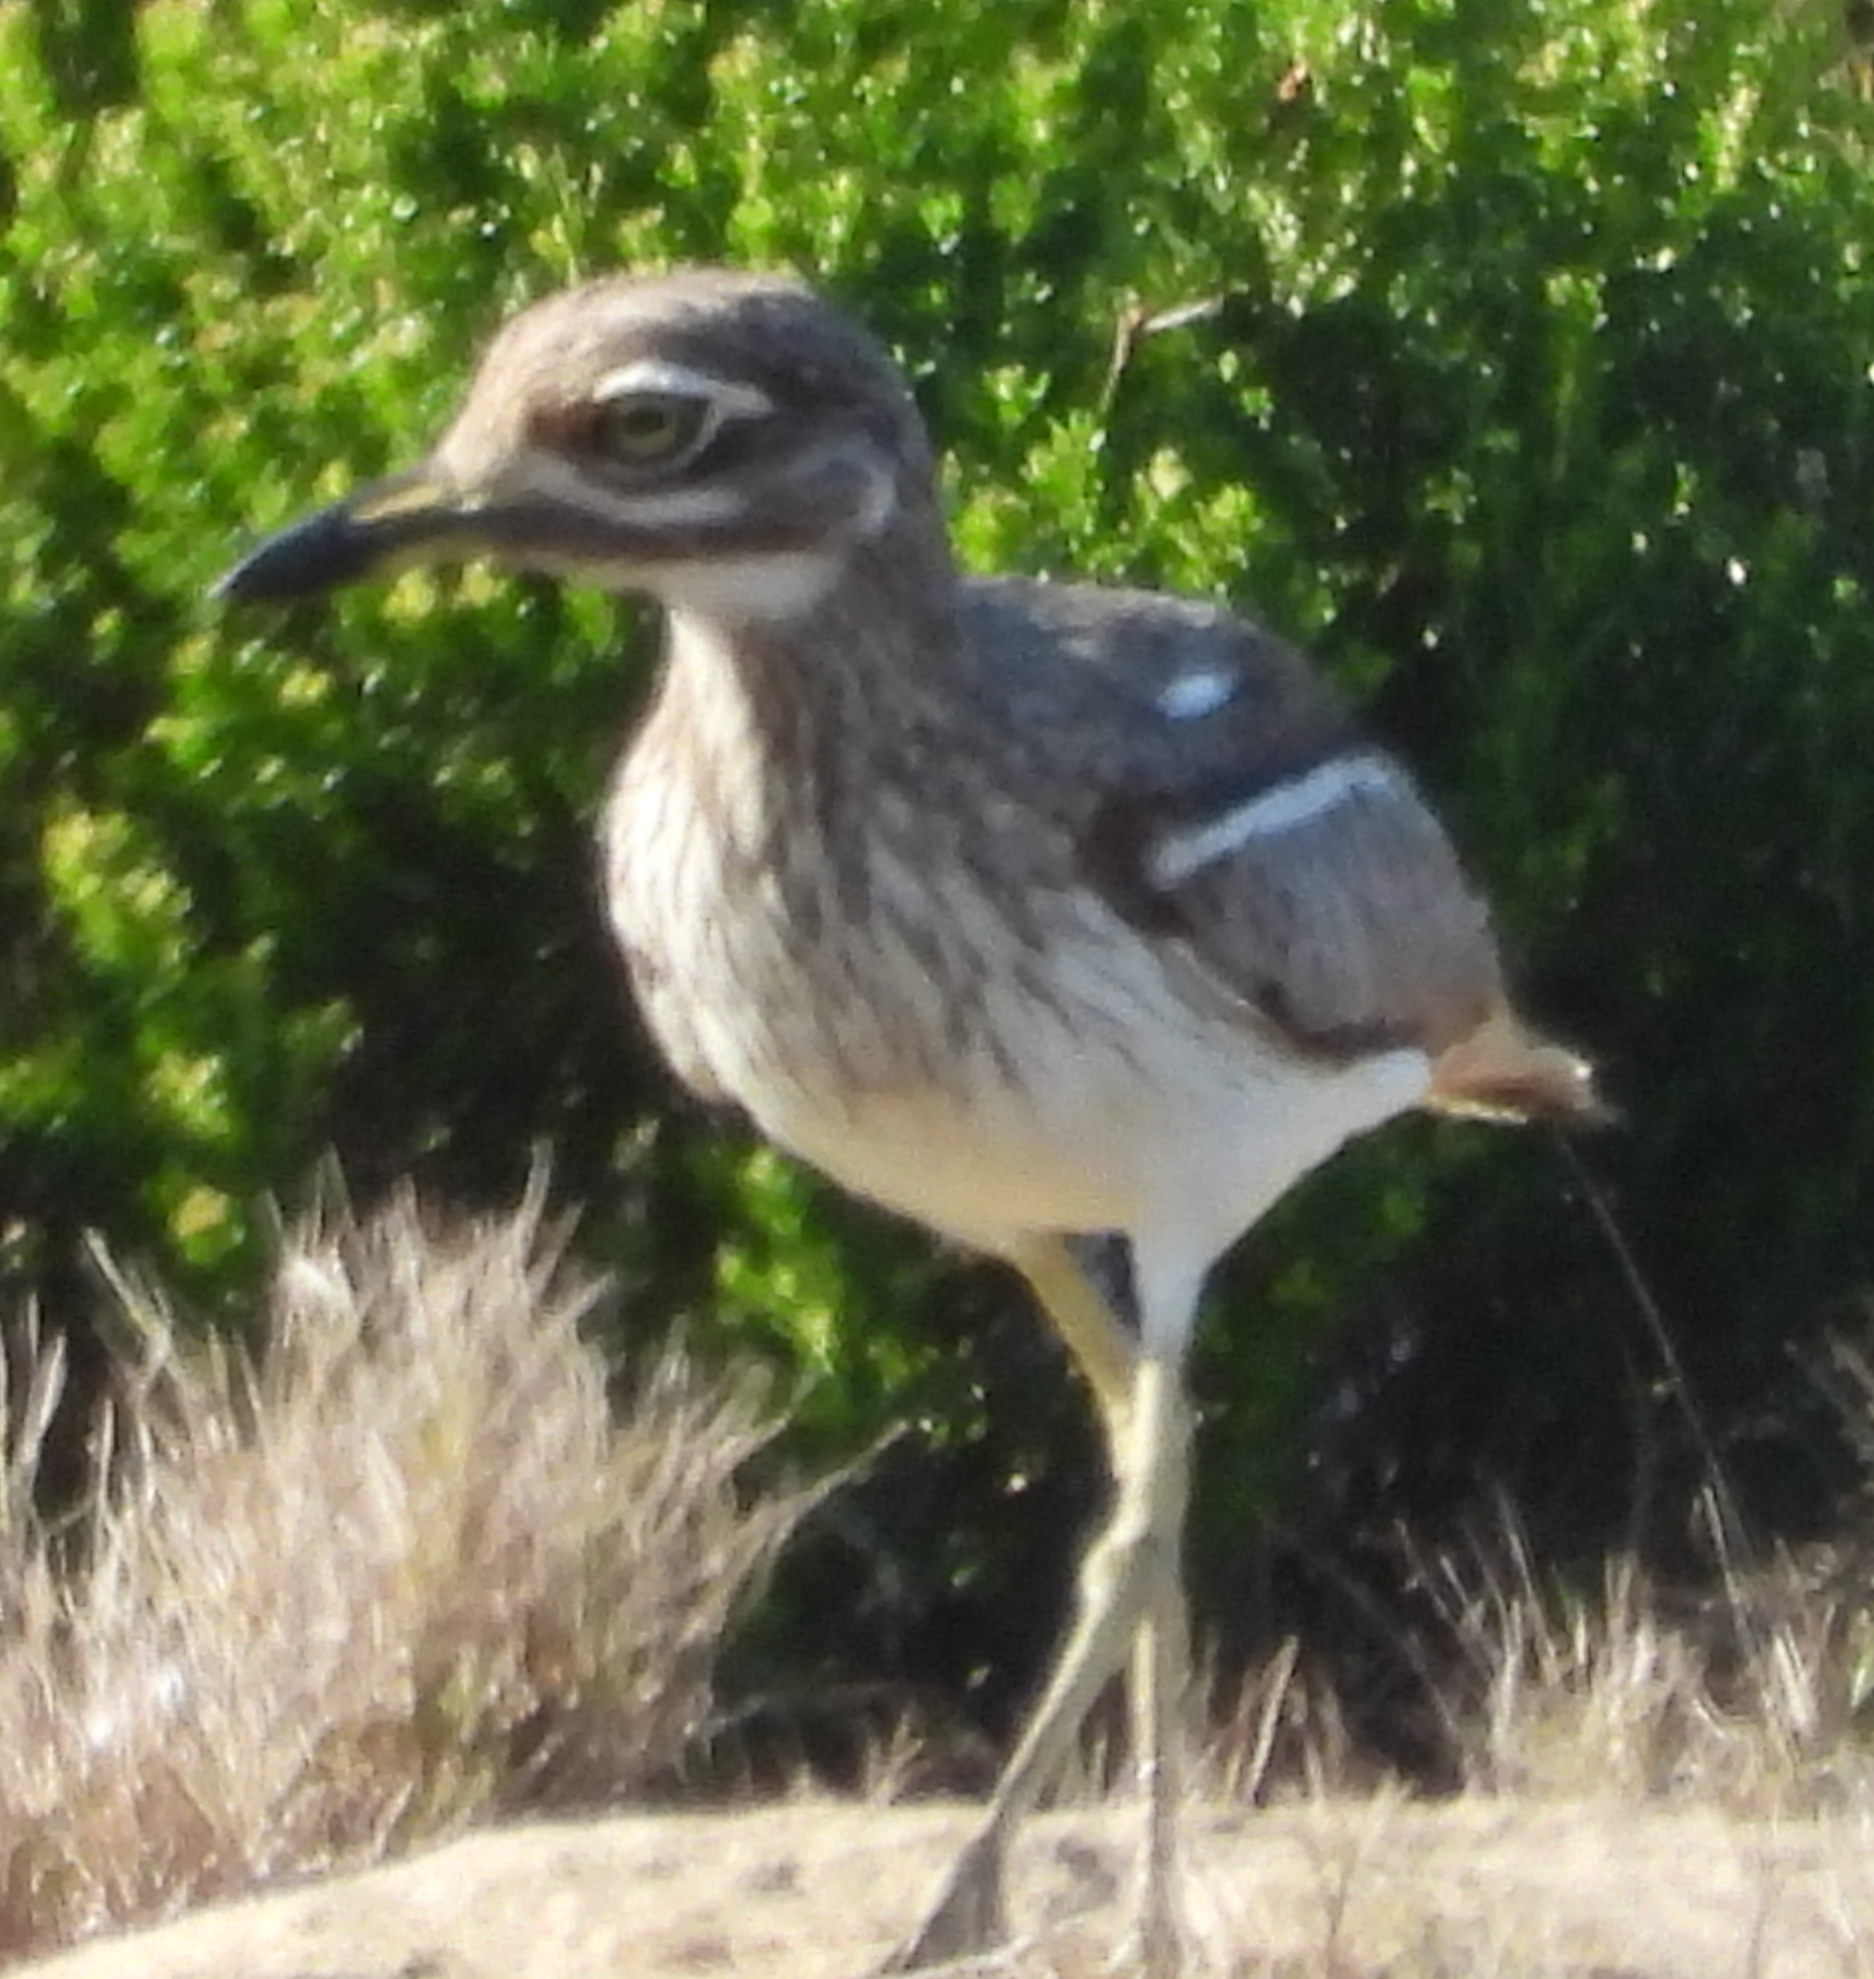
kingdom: Animalia
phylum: Chordata
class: Aves
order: Charadriiformes
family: Burhinidae
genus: Burhinus
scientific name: Burhinus vermiculatus
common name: Water thick-knee
